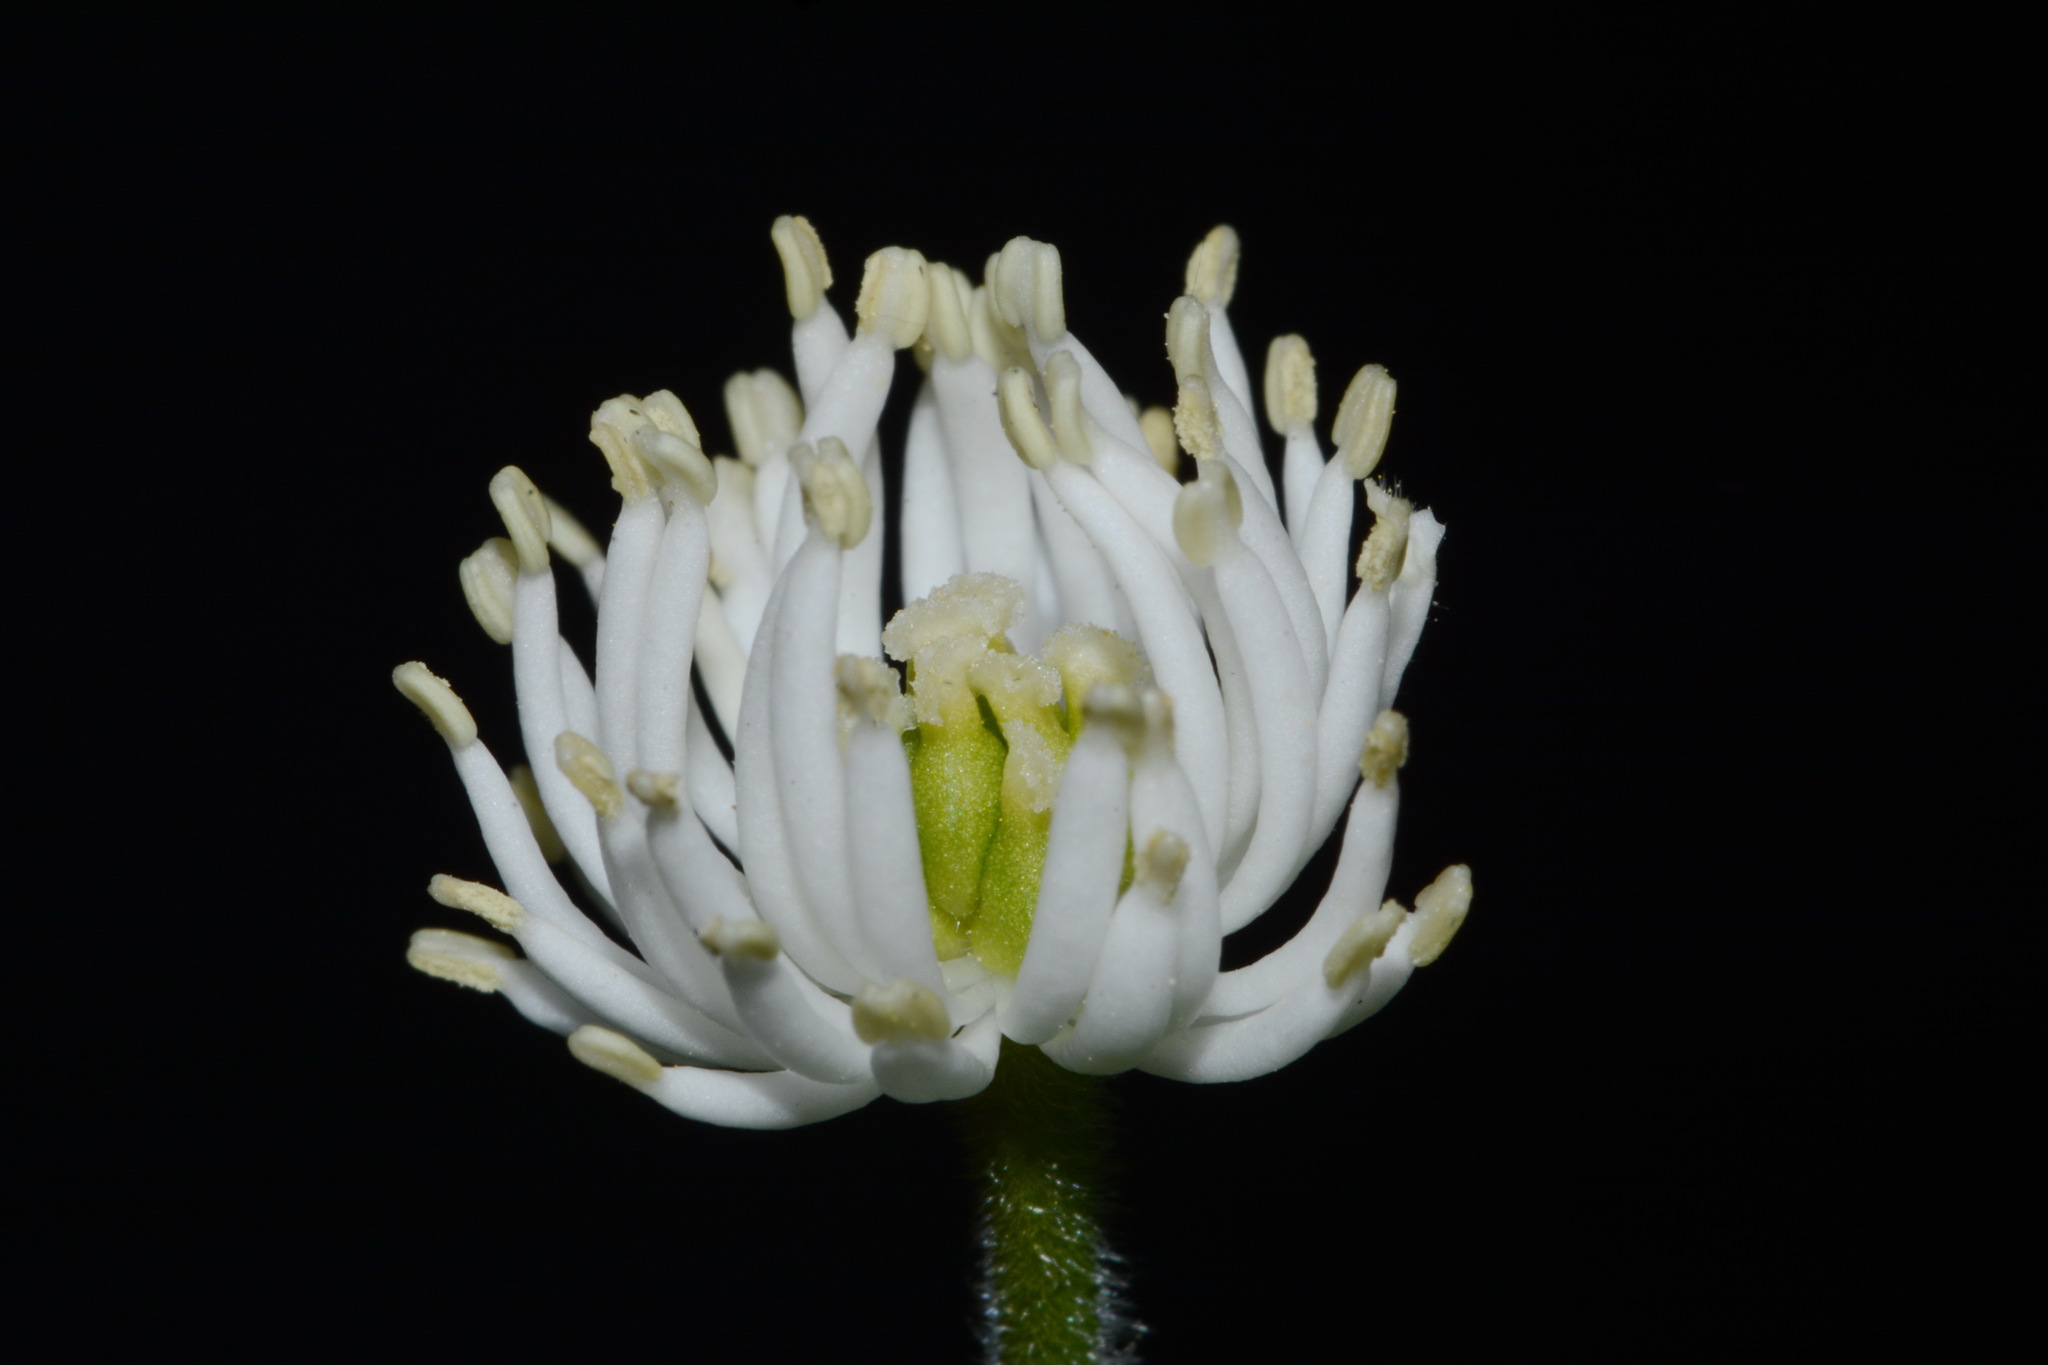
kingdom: Plantae
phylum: Tracheophyta
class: Magnoliopsida
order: Ranunculales
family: Ranunculaceae
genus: Hydrastis
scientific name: Hydrastis canadensis
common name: Goldenseal
